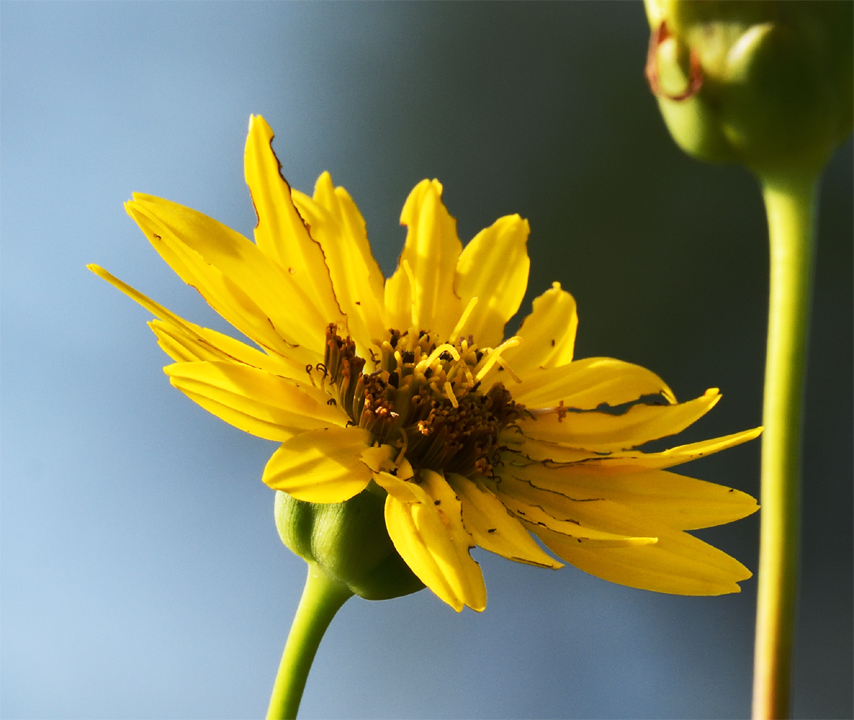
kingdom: Plantae
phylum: Tracheophyta
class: Magnoliopsida
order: Asterales
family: Asteraceae
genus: Silphium
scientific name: Silphium terebinthinaceum
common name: Basal-leaf rosinweed
